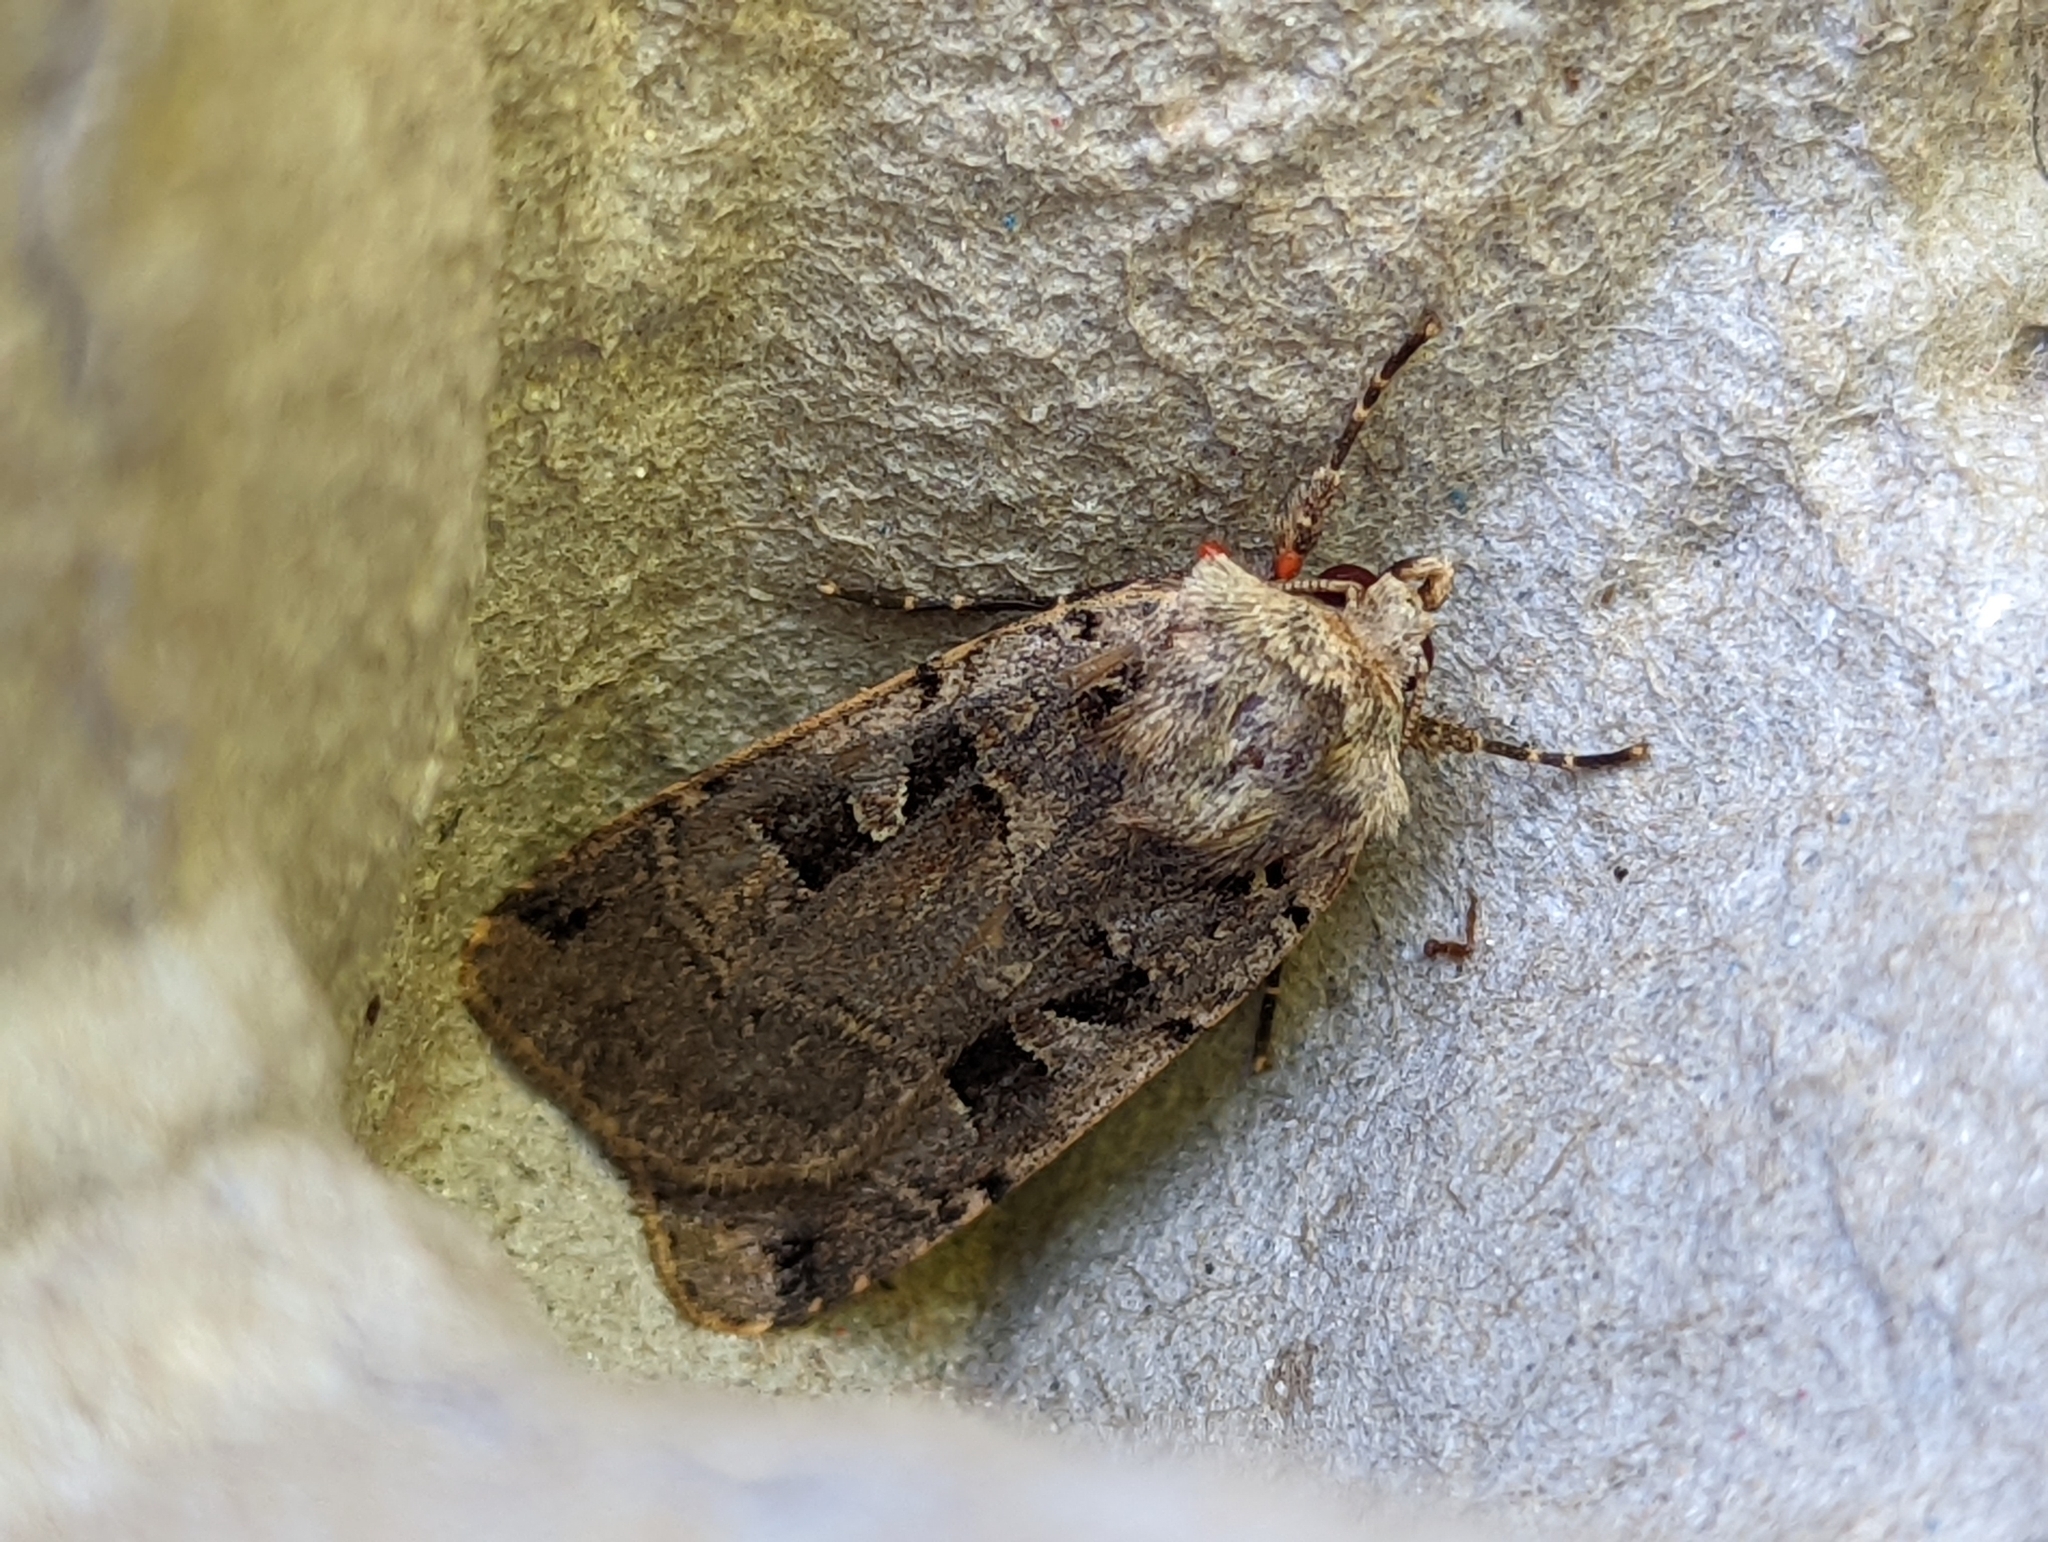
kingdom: Animalia
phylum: Arthropoda
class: Insecta
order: Lepidoptera
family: Noctuidae
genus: Xestia
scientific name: Xestia triangulum
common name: Double square-spot
